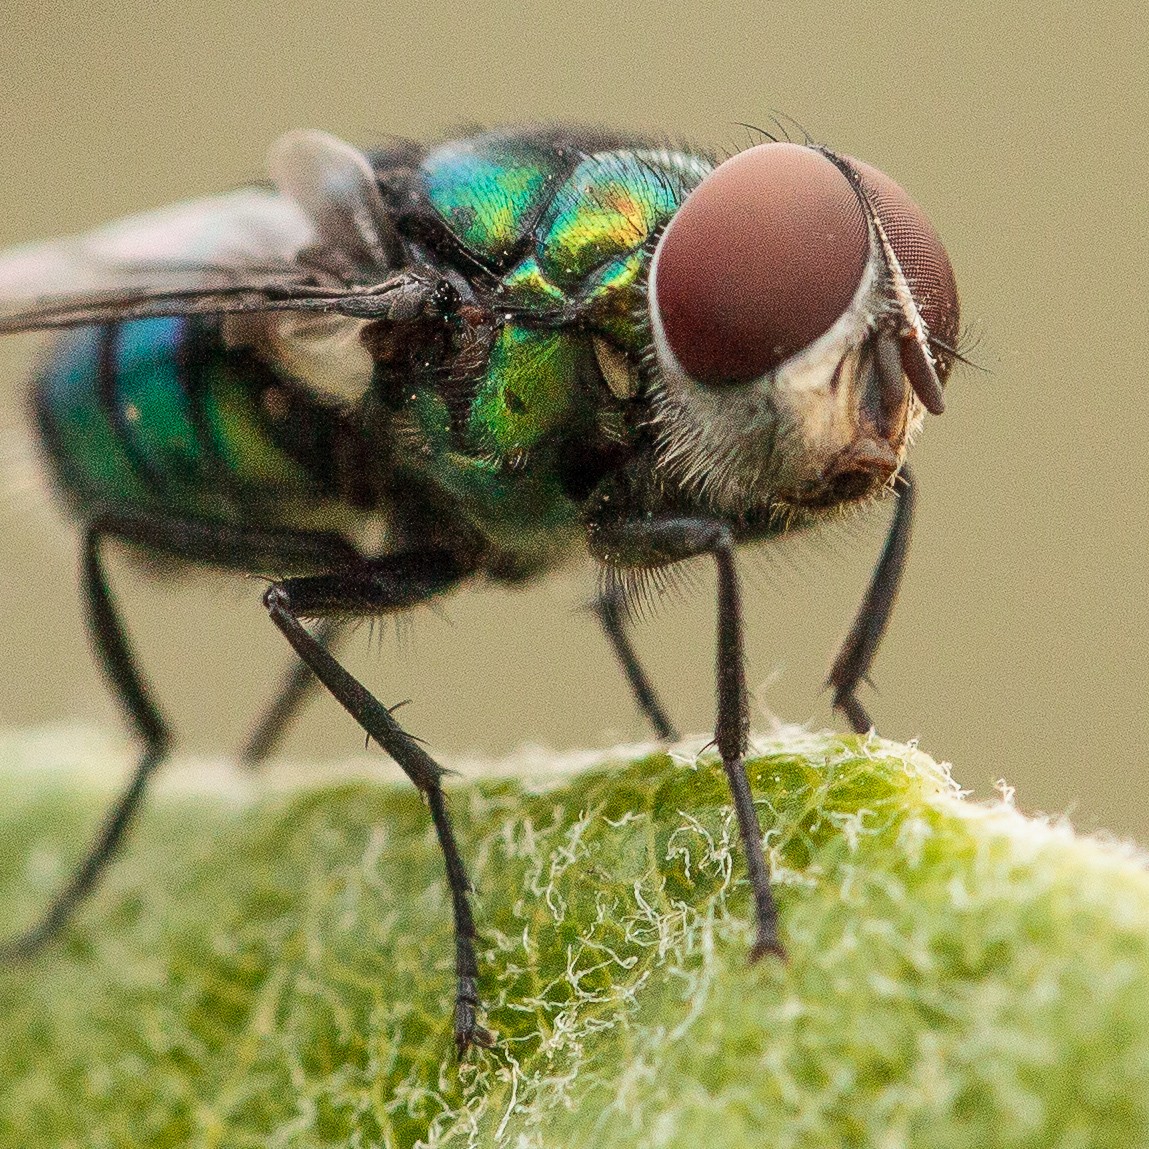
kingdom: Animalia
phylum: Arthropoda
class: Insecta
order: Diptera
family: Calliphoridae
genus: Chrysomya
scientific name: Chrysomya rufifacies
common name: Blow fly
